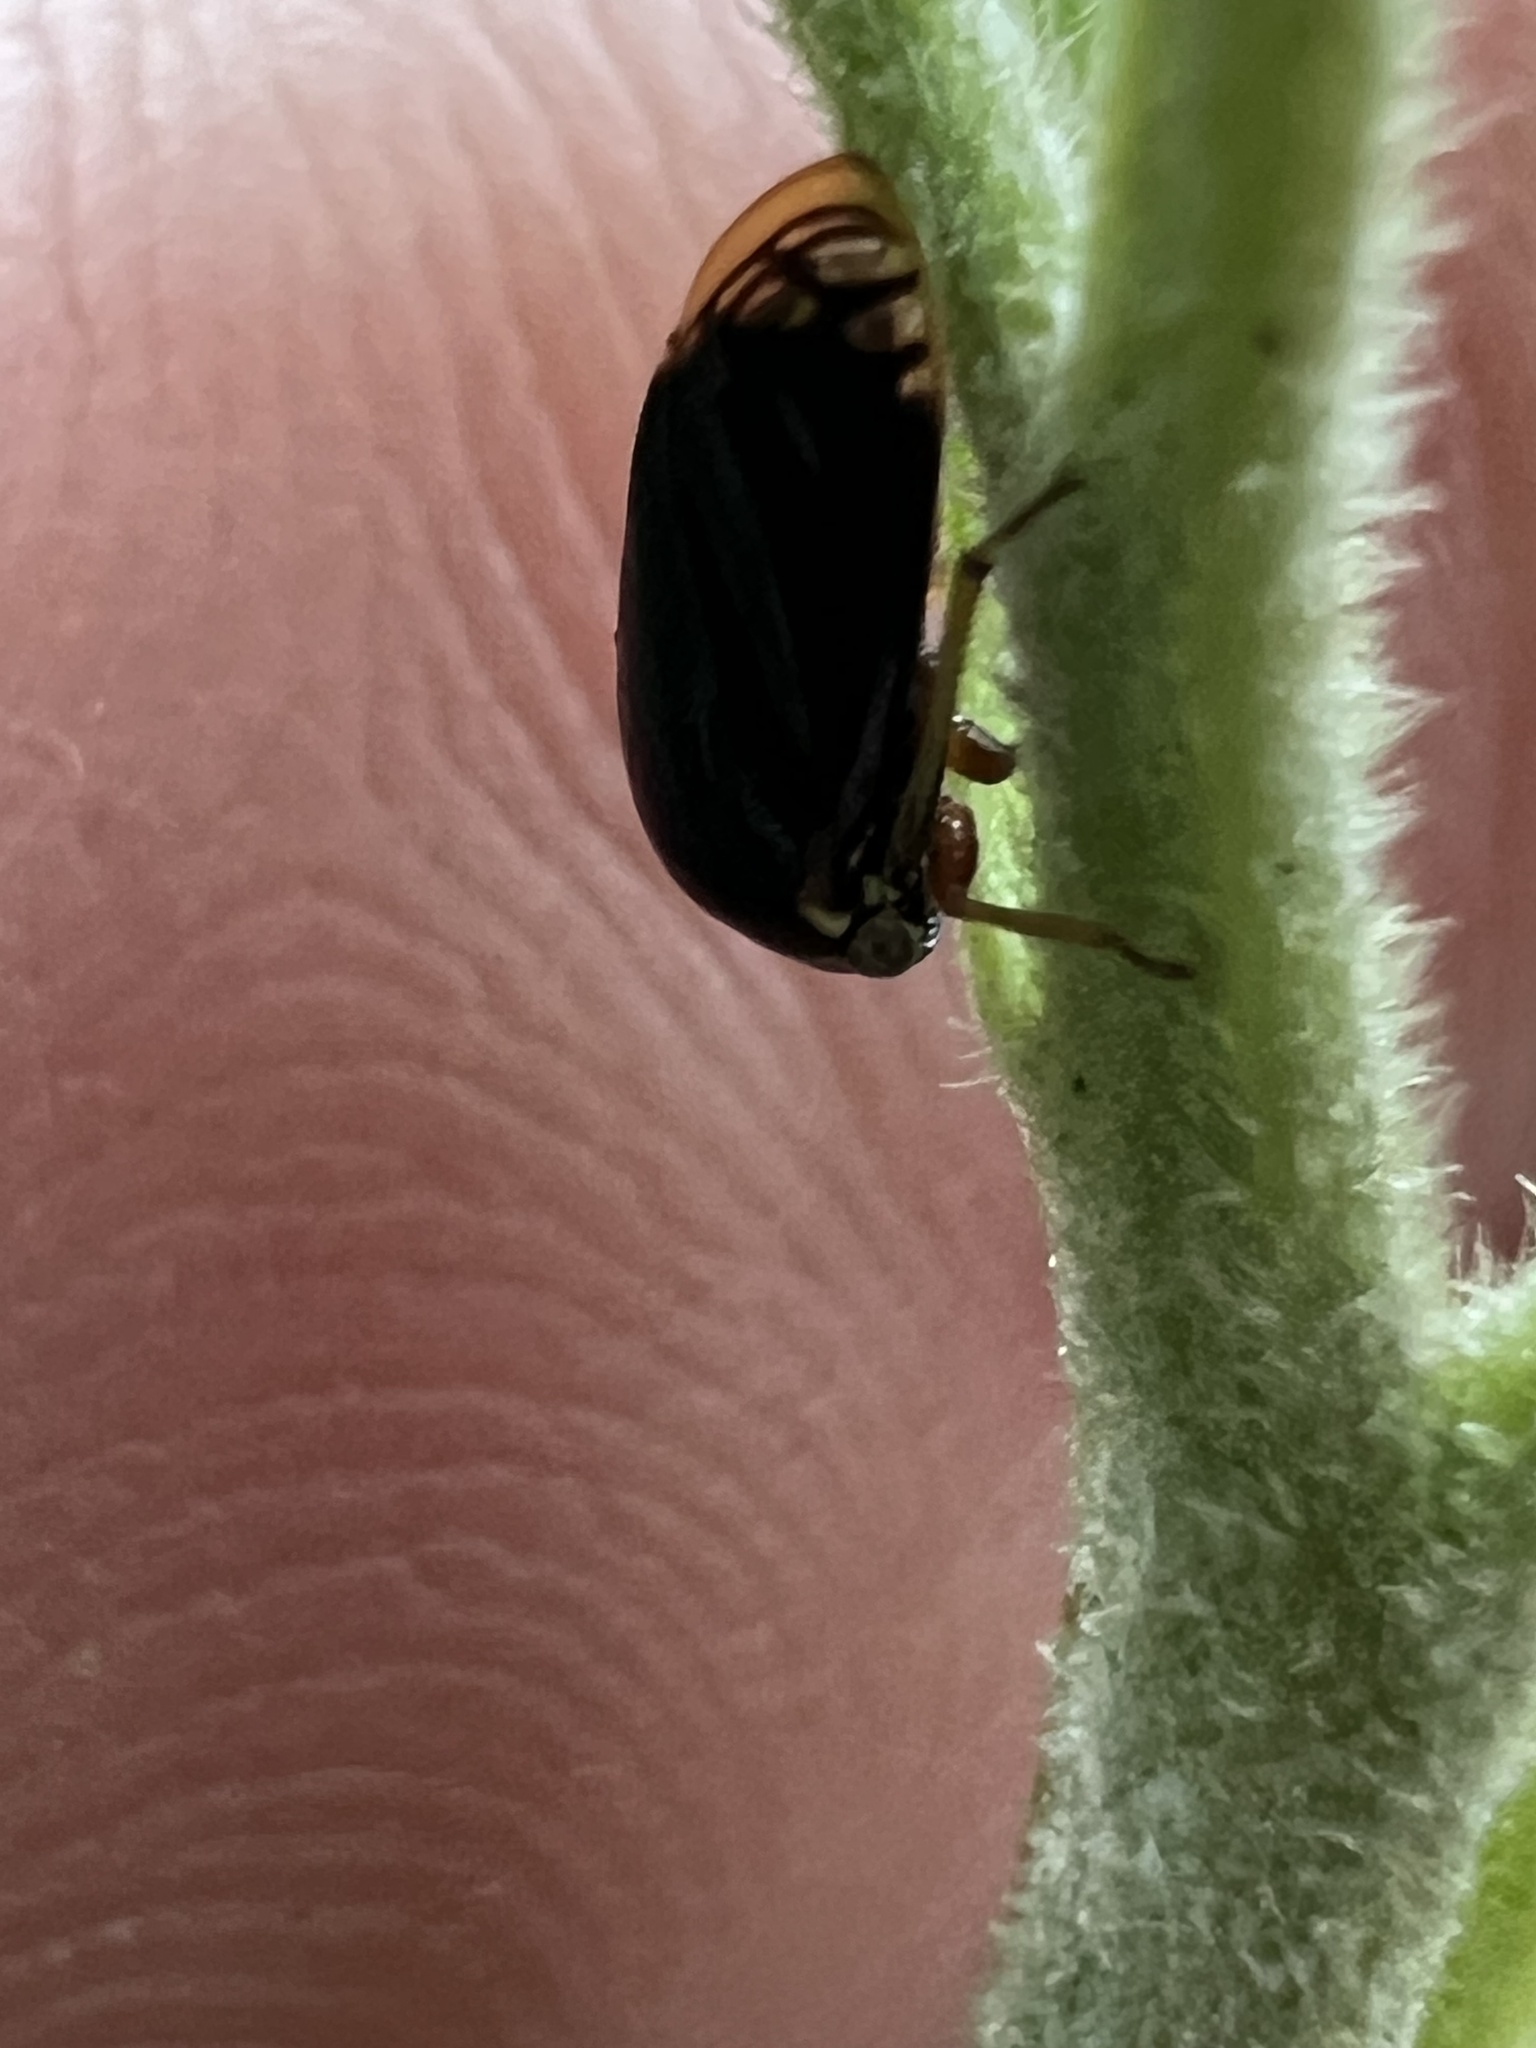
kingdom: Animalia
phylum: Arthropoda
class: Insecta
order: Hemiptera
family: Membracidae
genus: Acutalis
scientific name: Acutalis tartarea
